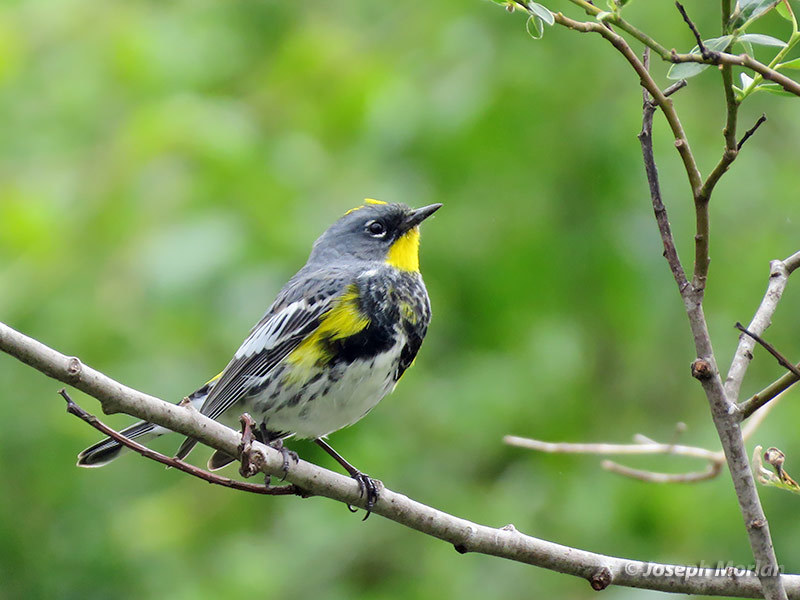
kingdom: Animalia
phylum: Chordata
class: Aves
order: Passeriformes
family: Parulidae
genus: Setophaga
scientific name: Setophaga coronata
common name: Myrtle warbler
